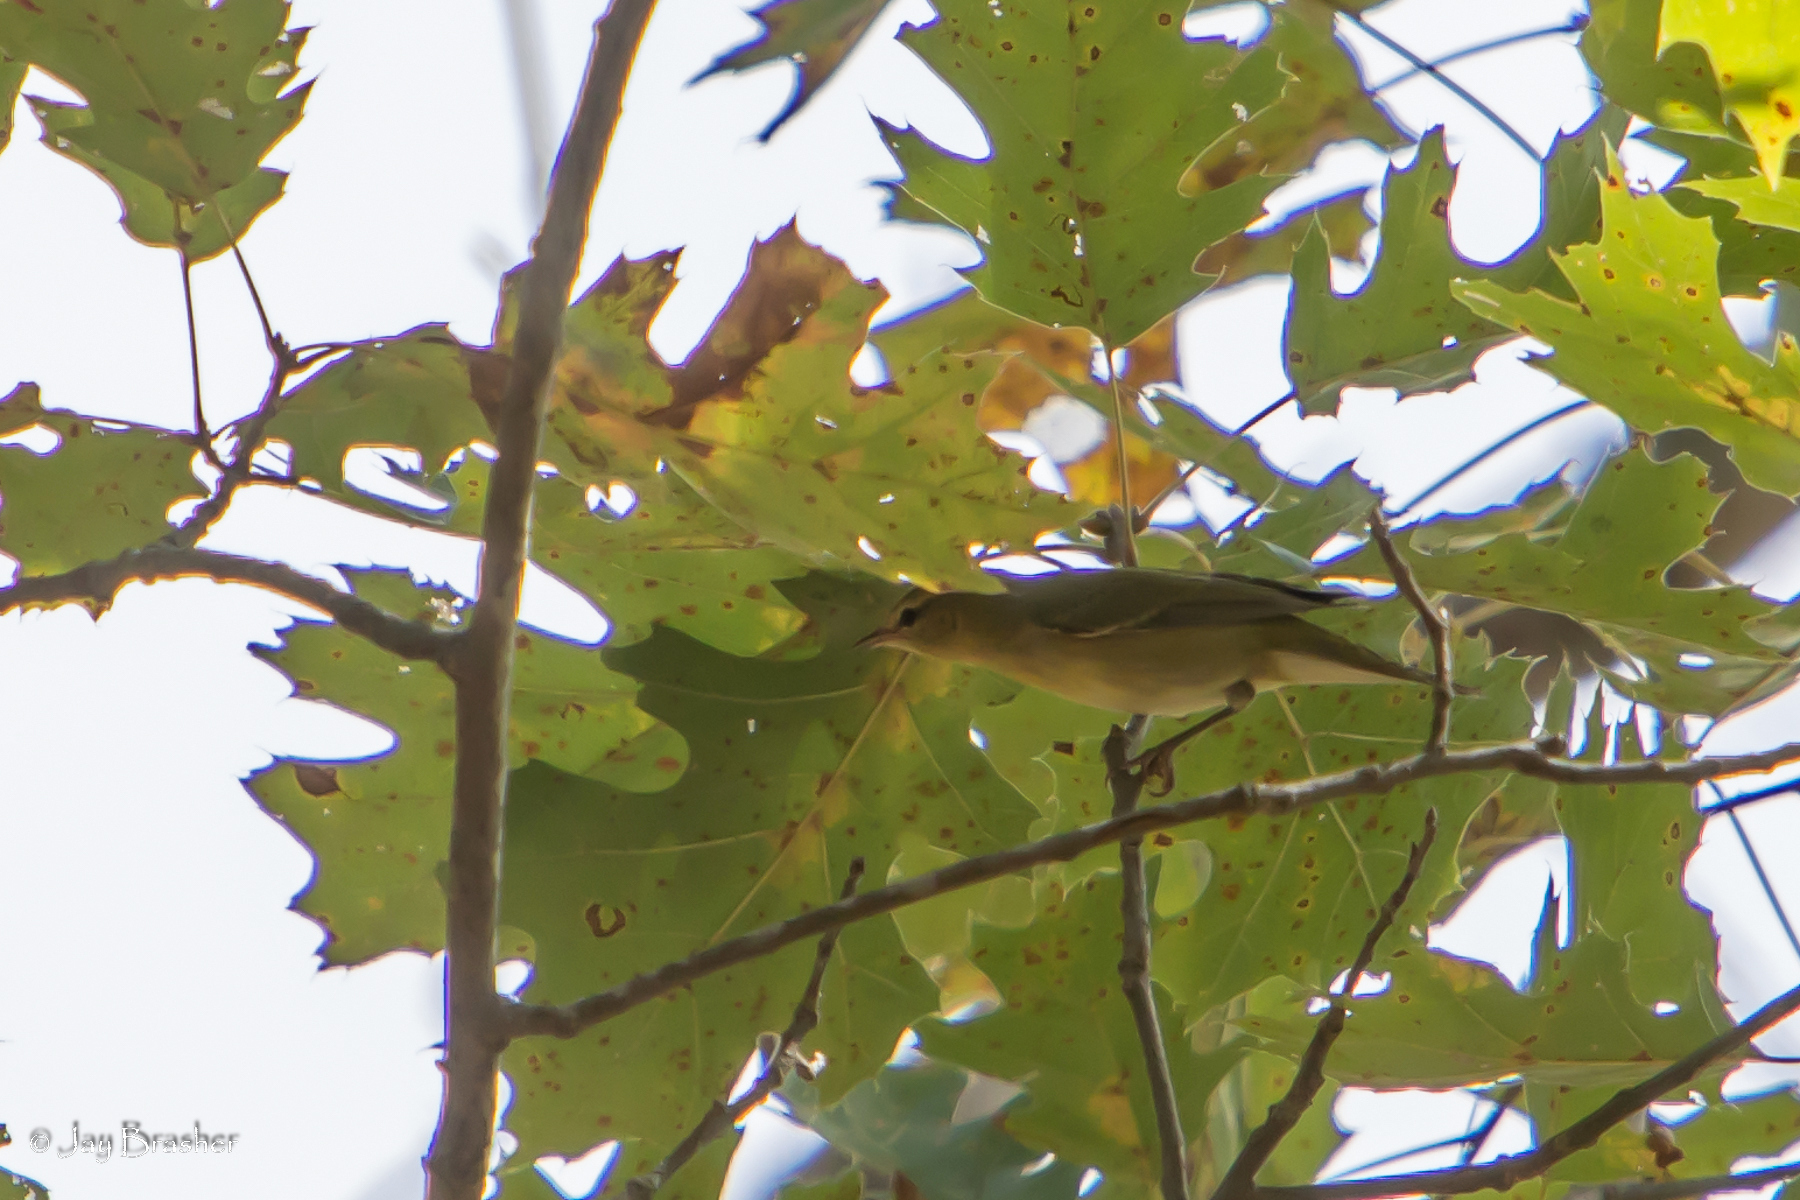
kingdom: Animalia
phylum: Chordata
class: Aves
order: Passeriformes
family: Parulidae
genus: Leiothlypis
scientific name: Leiothlypis peregrina
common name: Tennessee warbler
